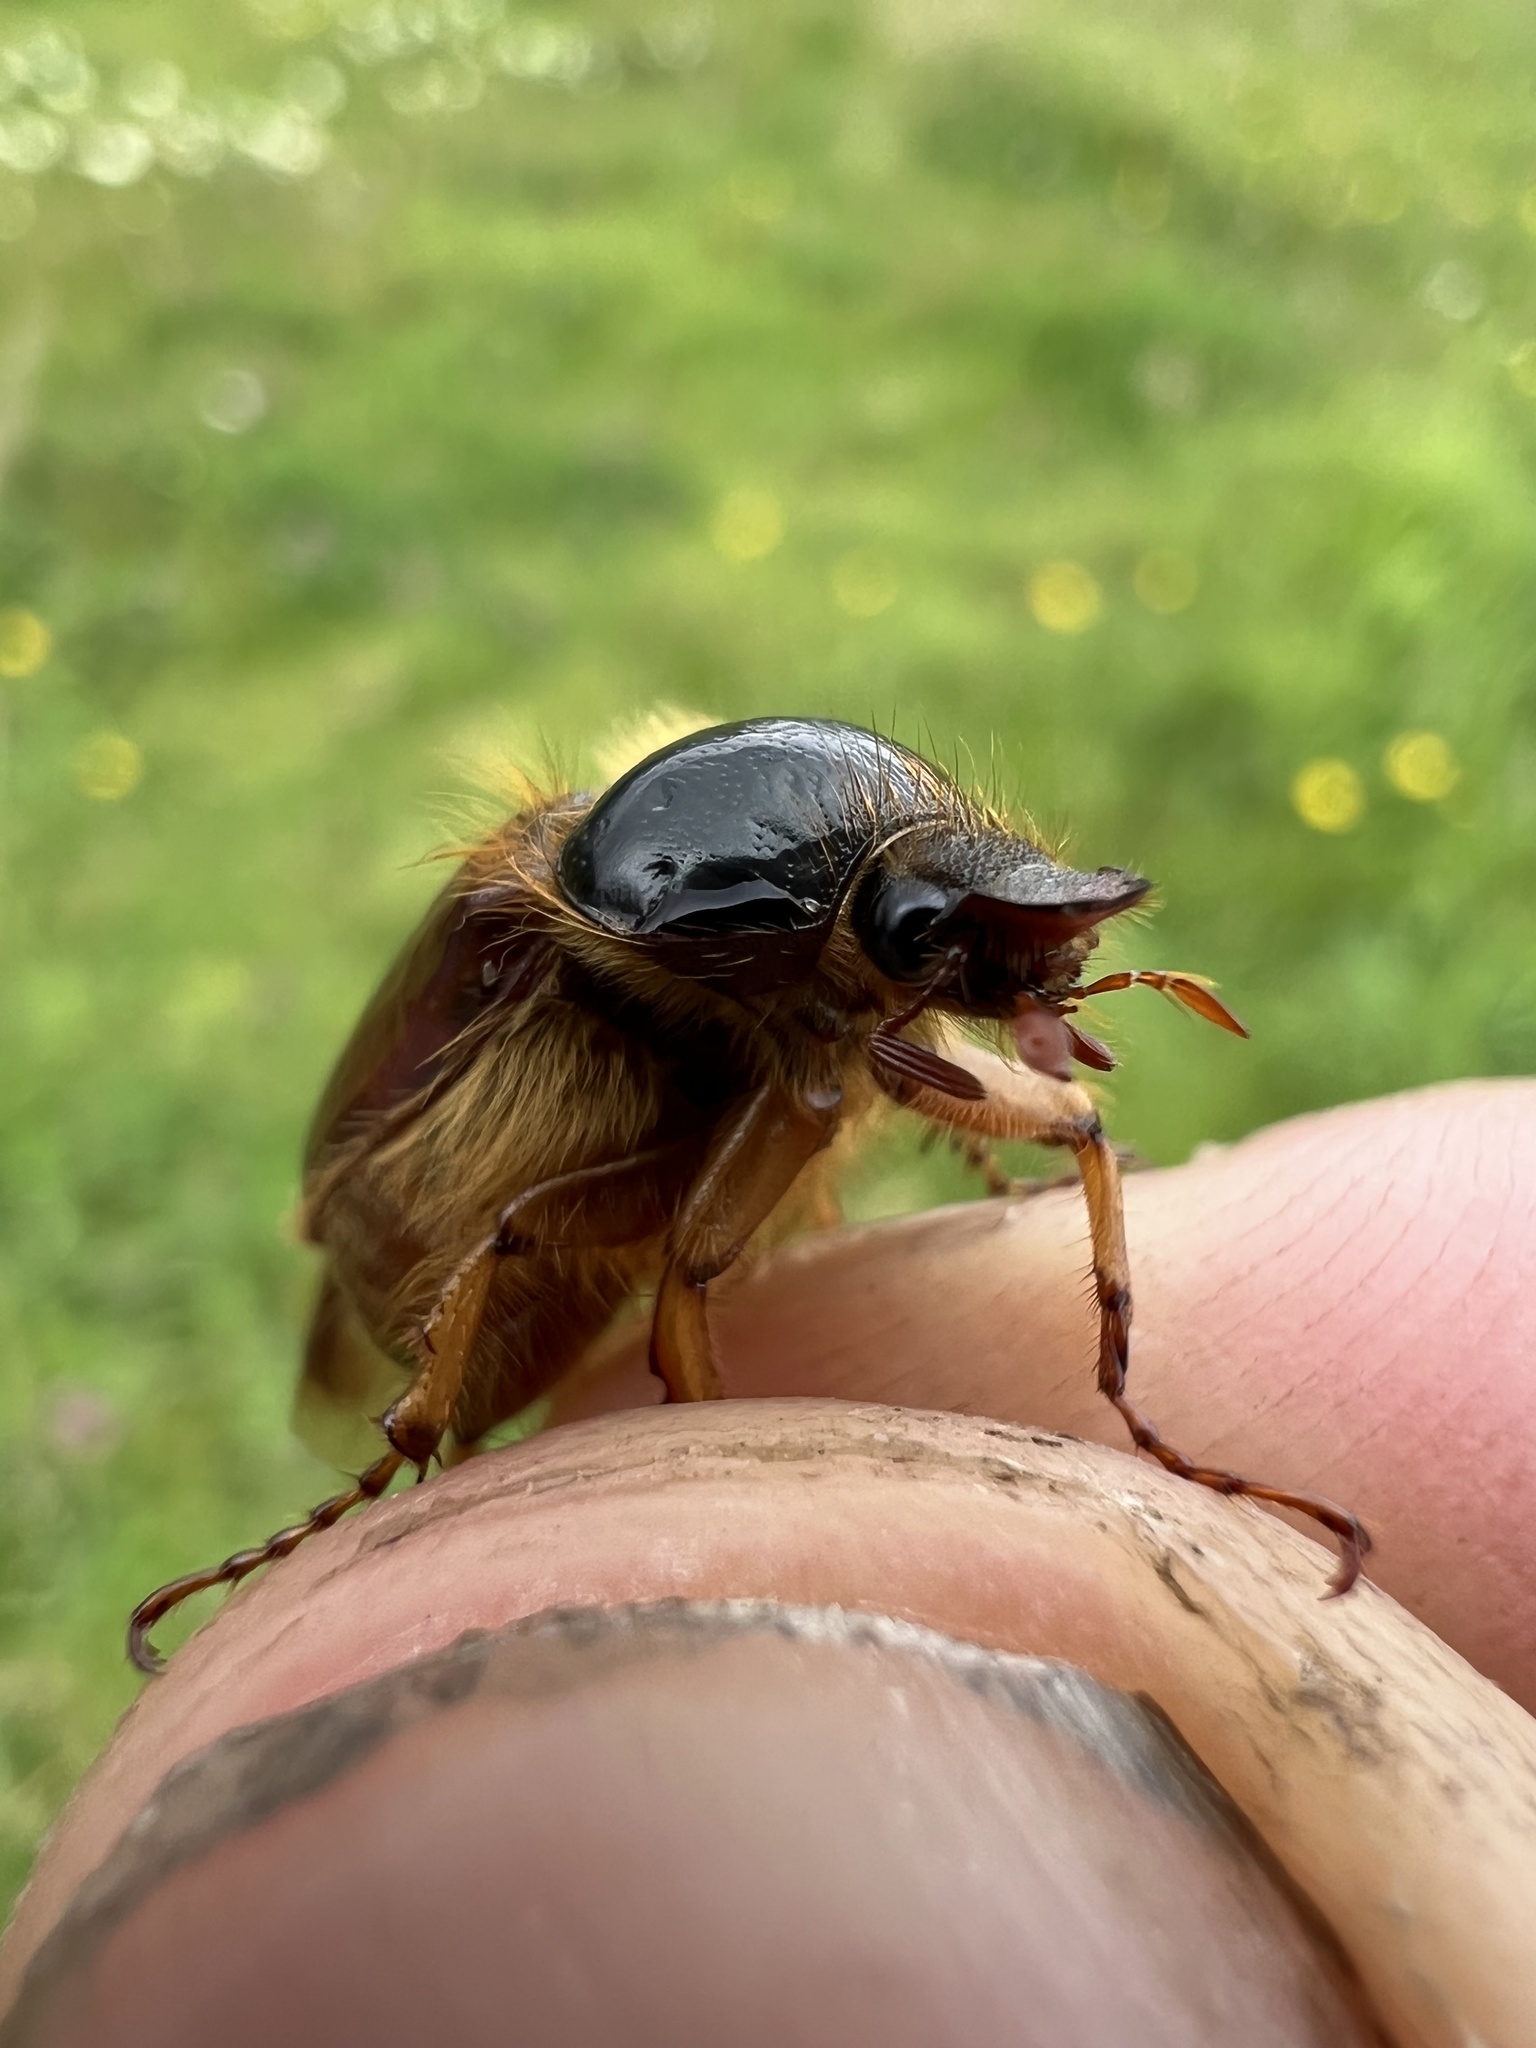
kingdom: Animalia
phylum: Arthropoda
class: Insecta
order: Coleoptera
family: Scarabaeidae
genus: Paulosawaya
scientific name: Paulosawaya ursina
